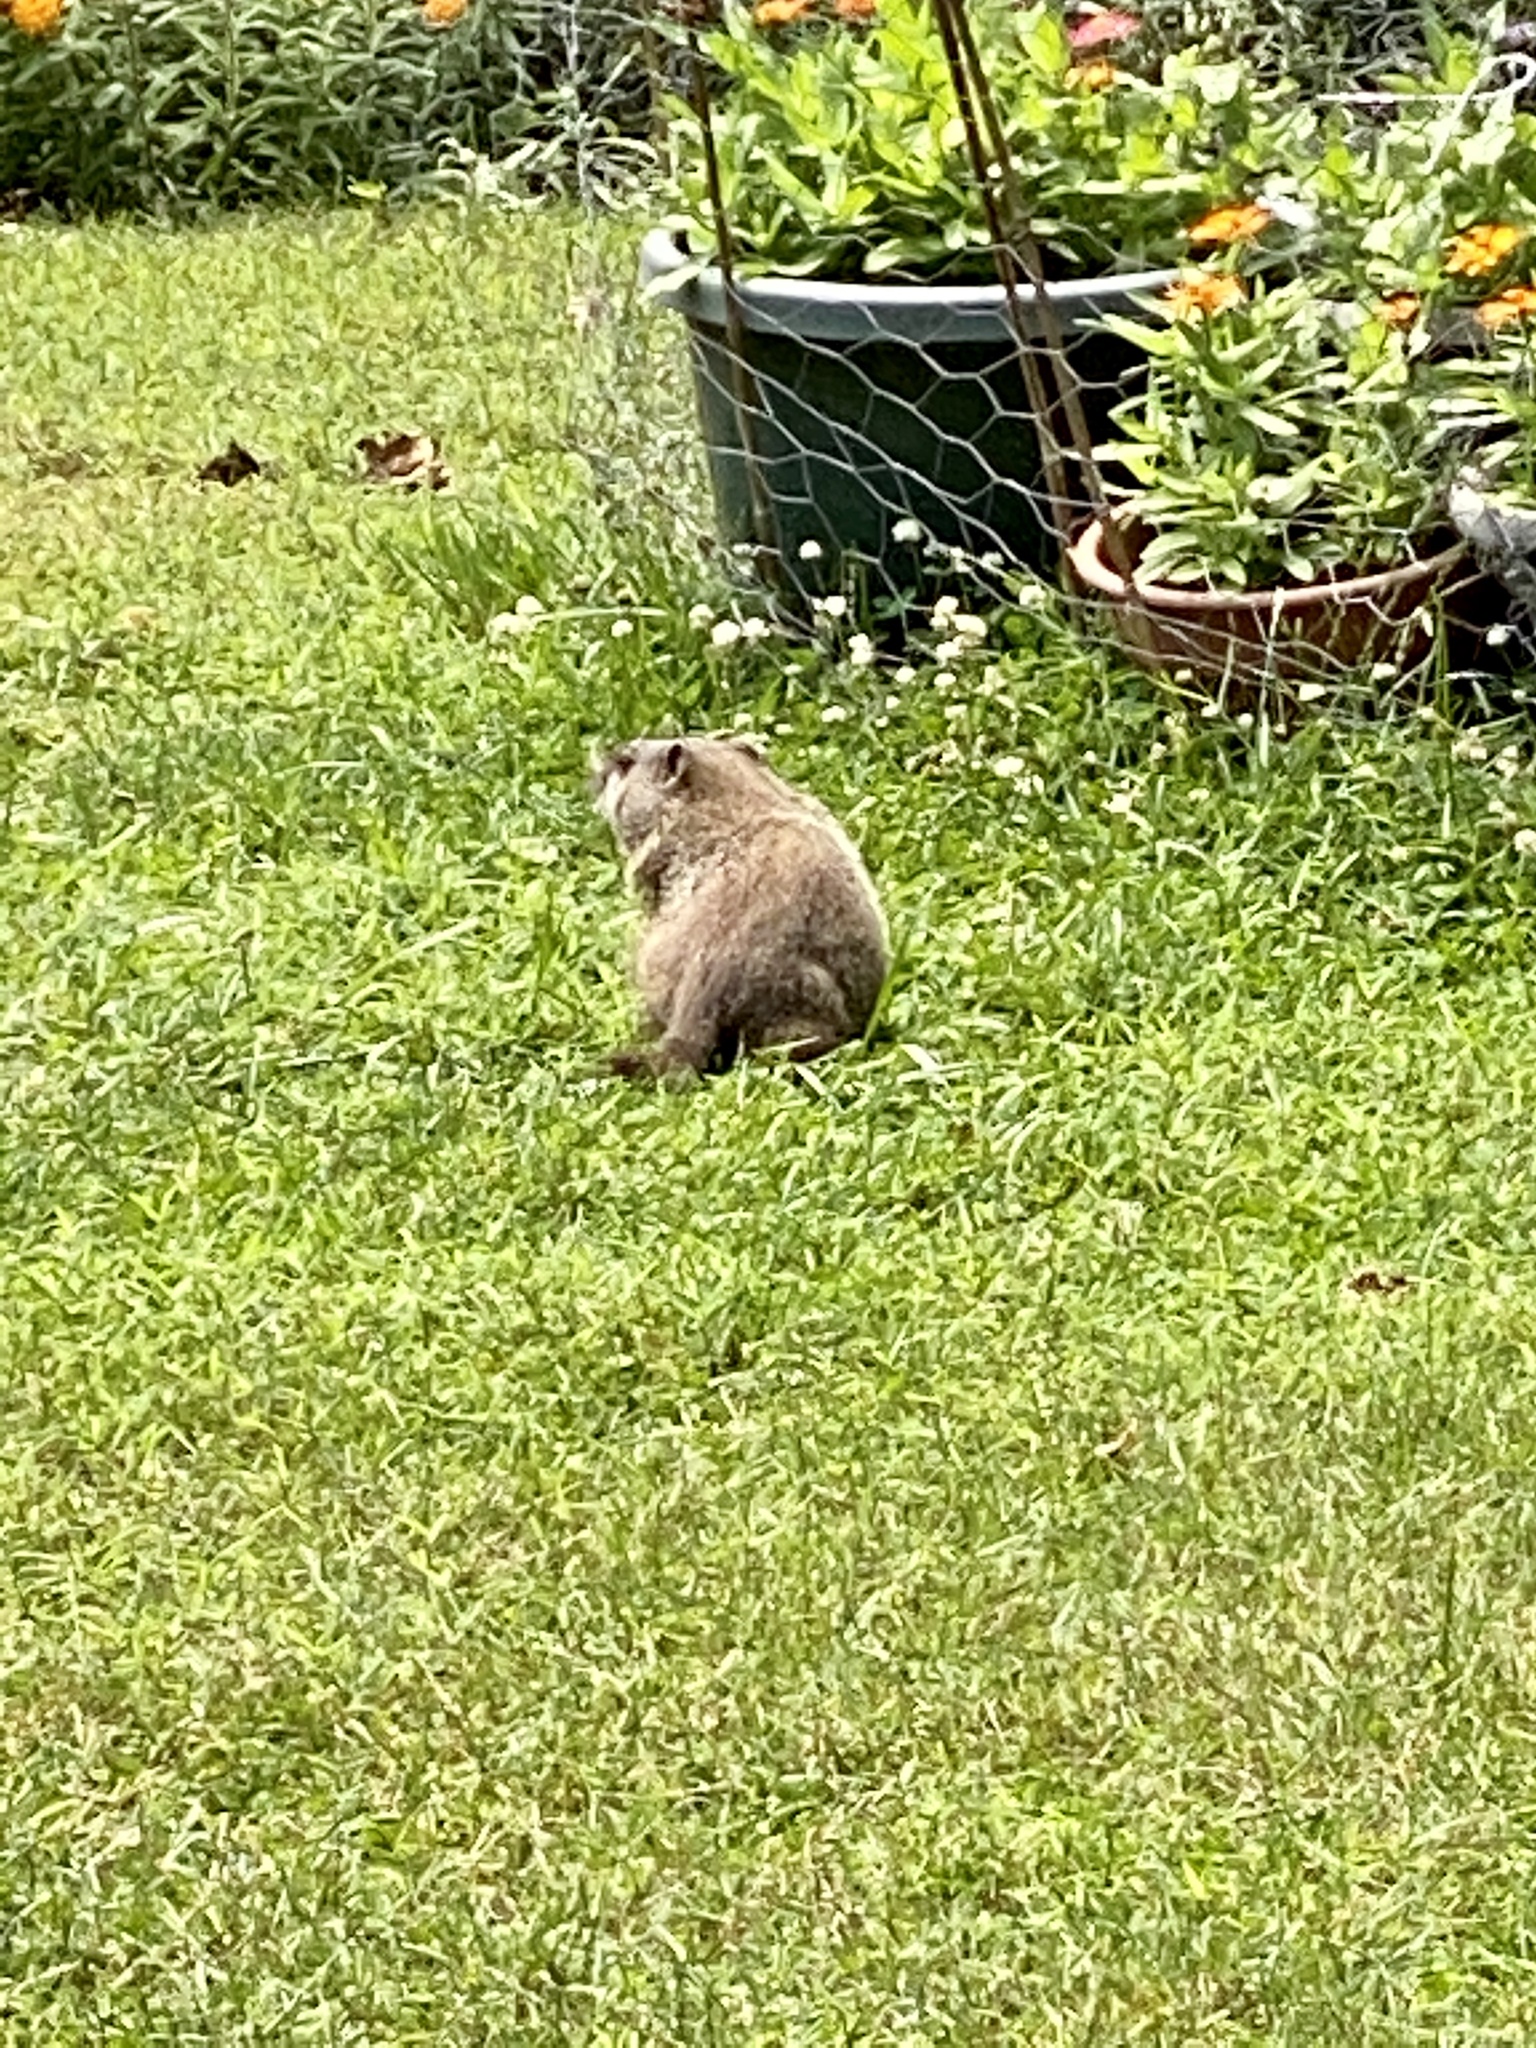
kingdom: Animalia
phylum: Chordata
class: Mammalia
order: Rodentia
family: Sciuridae
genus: Marmota
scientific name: Marmota monax
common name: Groundhog
